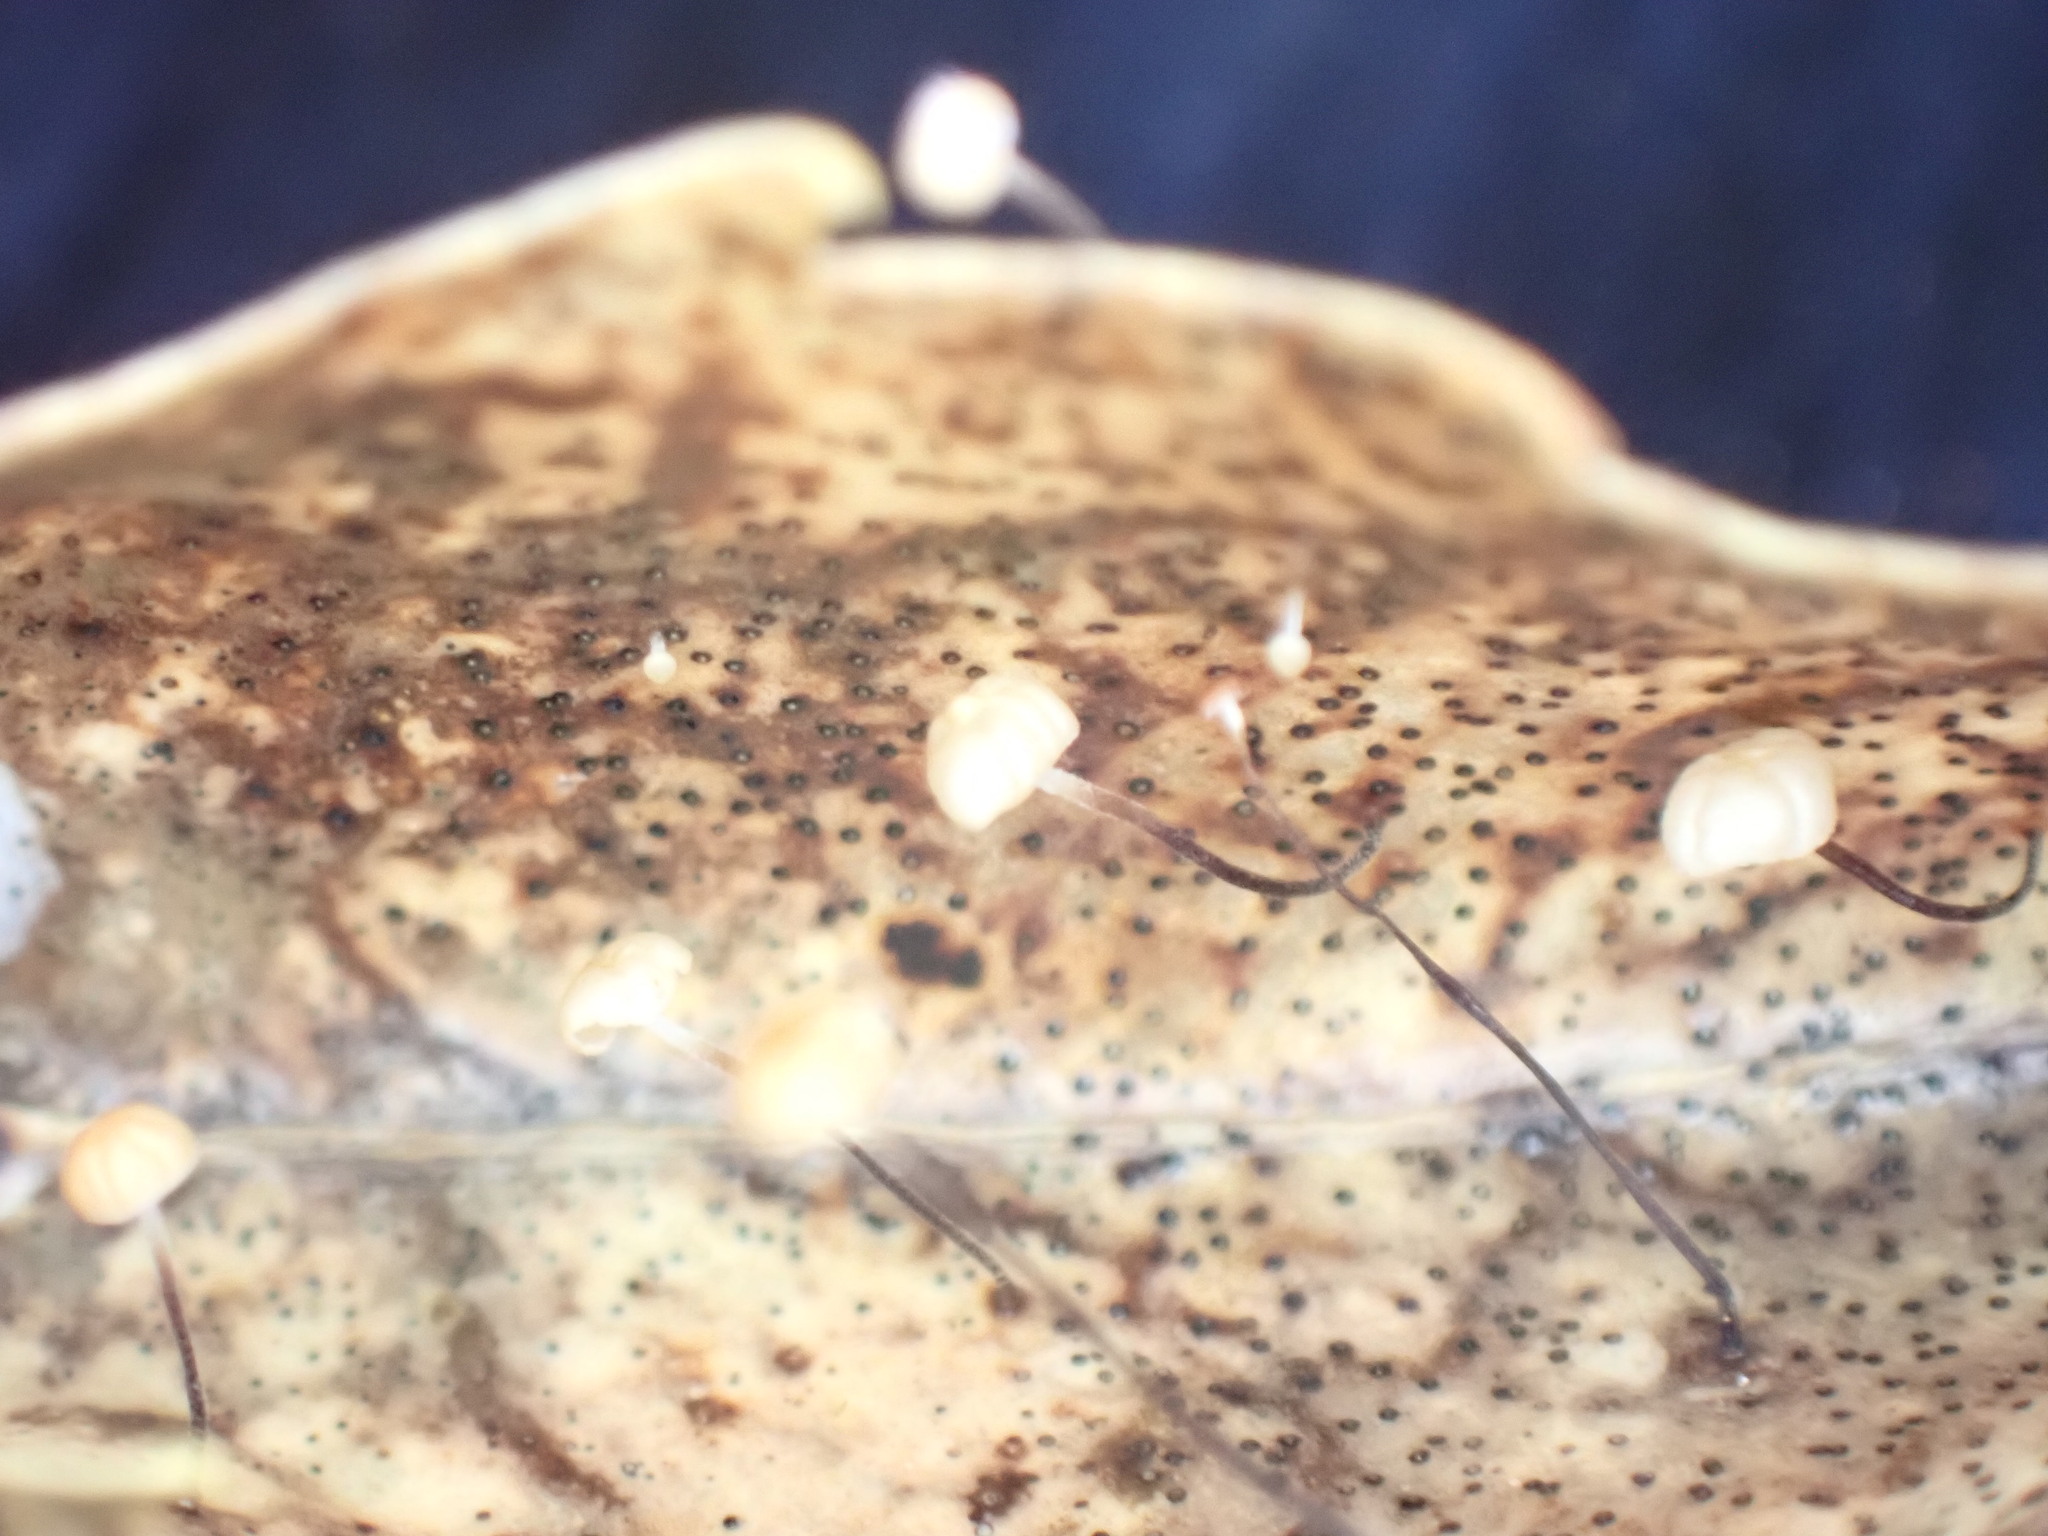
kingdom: Fungi
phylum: Basidiomycota
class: Agaricomycetes
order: Agaricales
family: Physalacriaceae
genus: Gloiocephala
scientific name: Gloiocephala xanthocephala
